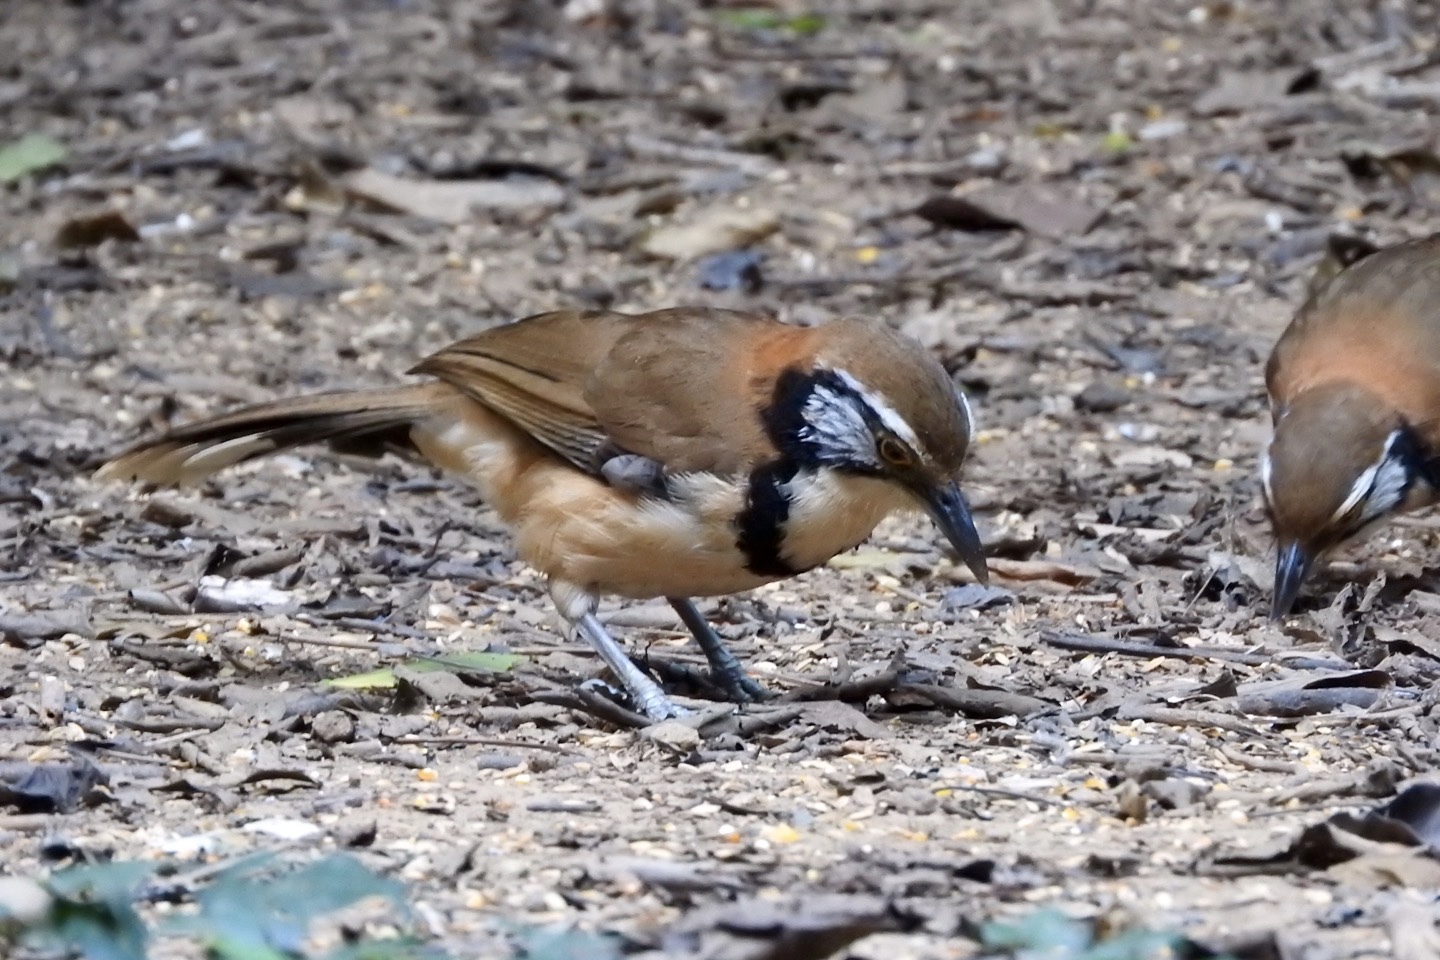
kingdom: Animalia
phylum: Chordata
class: Aves
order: Passeriformes
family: Leiothrichidae
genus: Garrulax
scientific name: Garrulax pectoralis
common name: Greater necklaced laughingthrush
